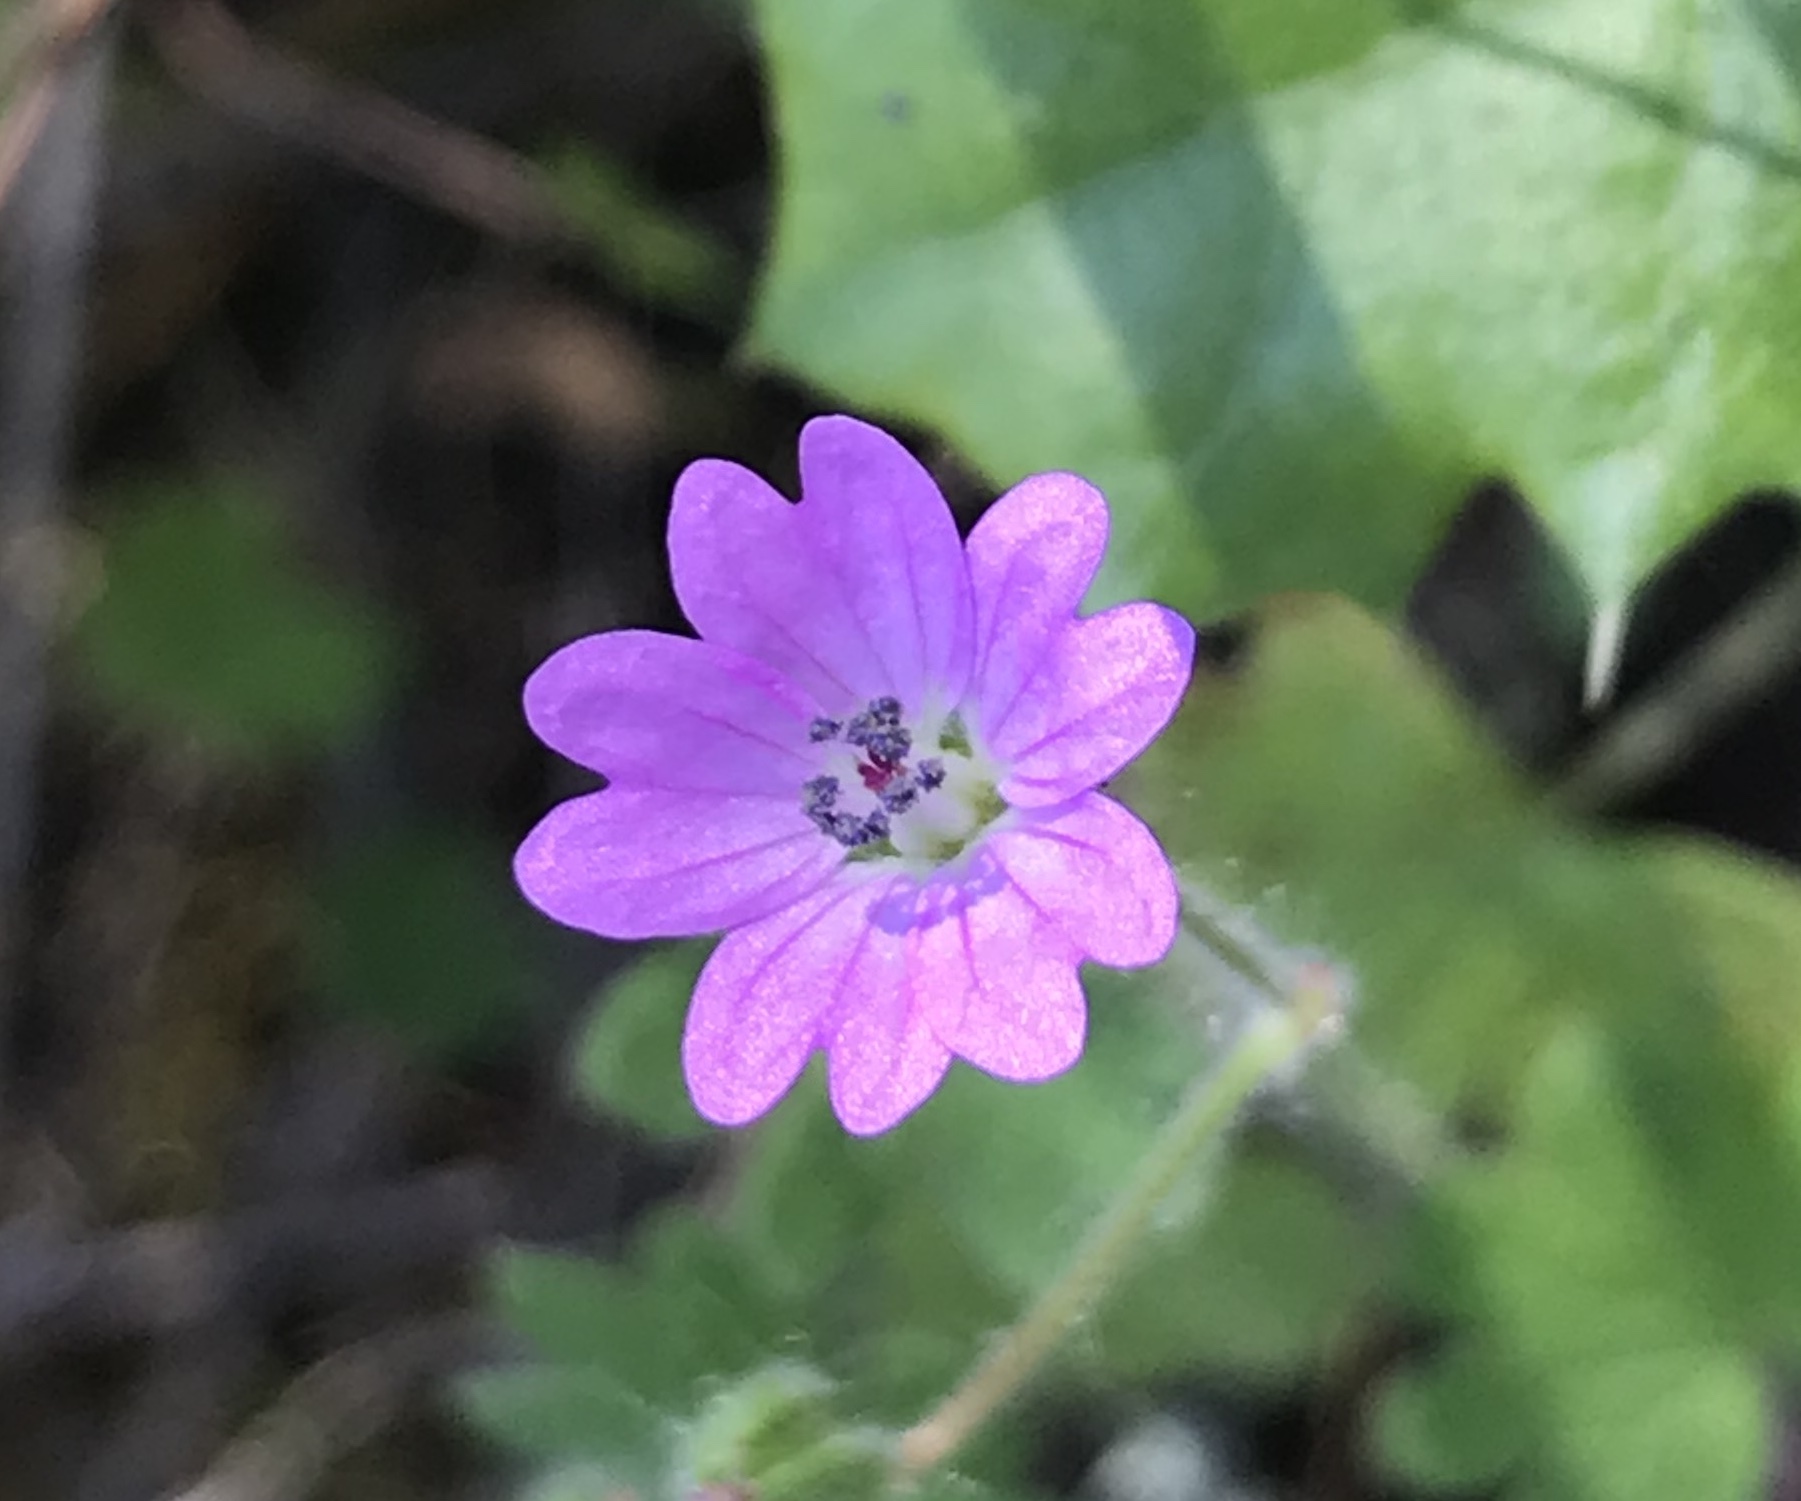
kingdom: Plantae
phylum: Tracheophyta
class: Magnoliopsida
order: Geraniales
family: Geraniaceae
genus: Geranium
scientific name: Geranium molle
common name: Dove's-foot crane's-bill
